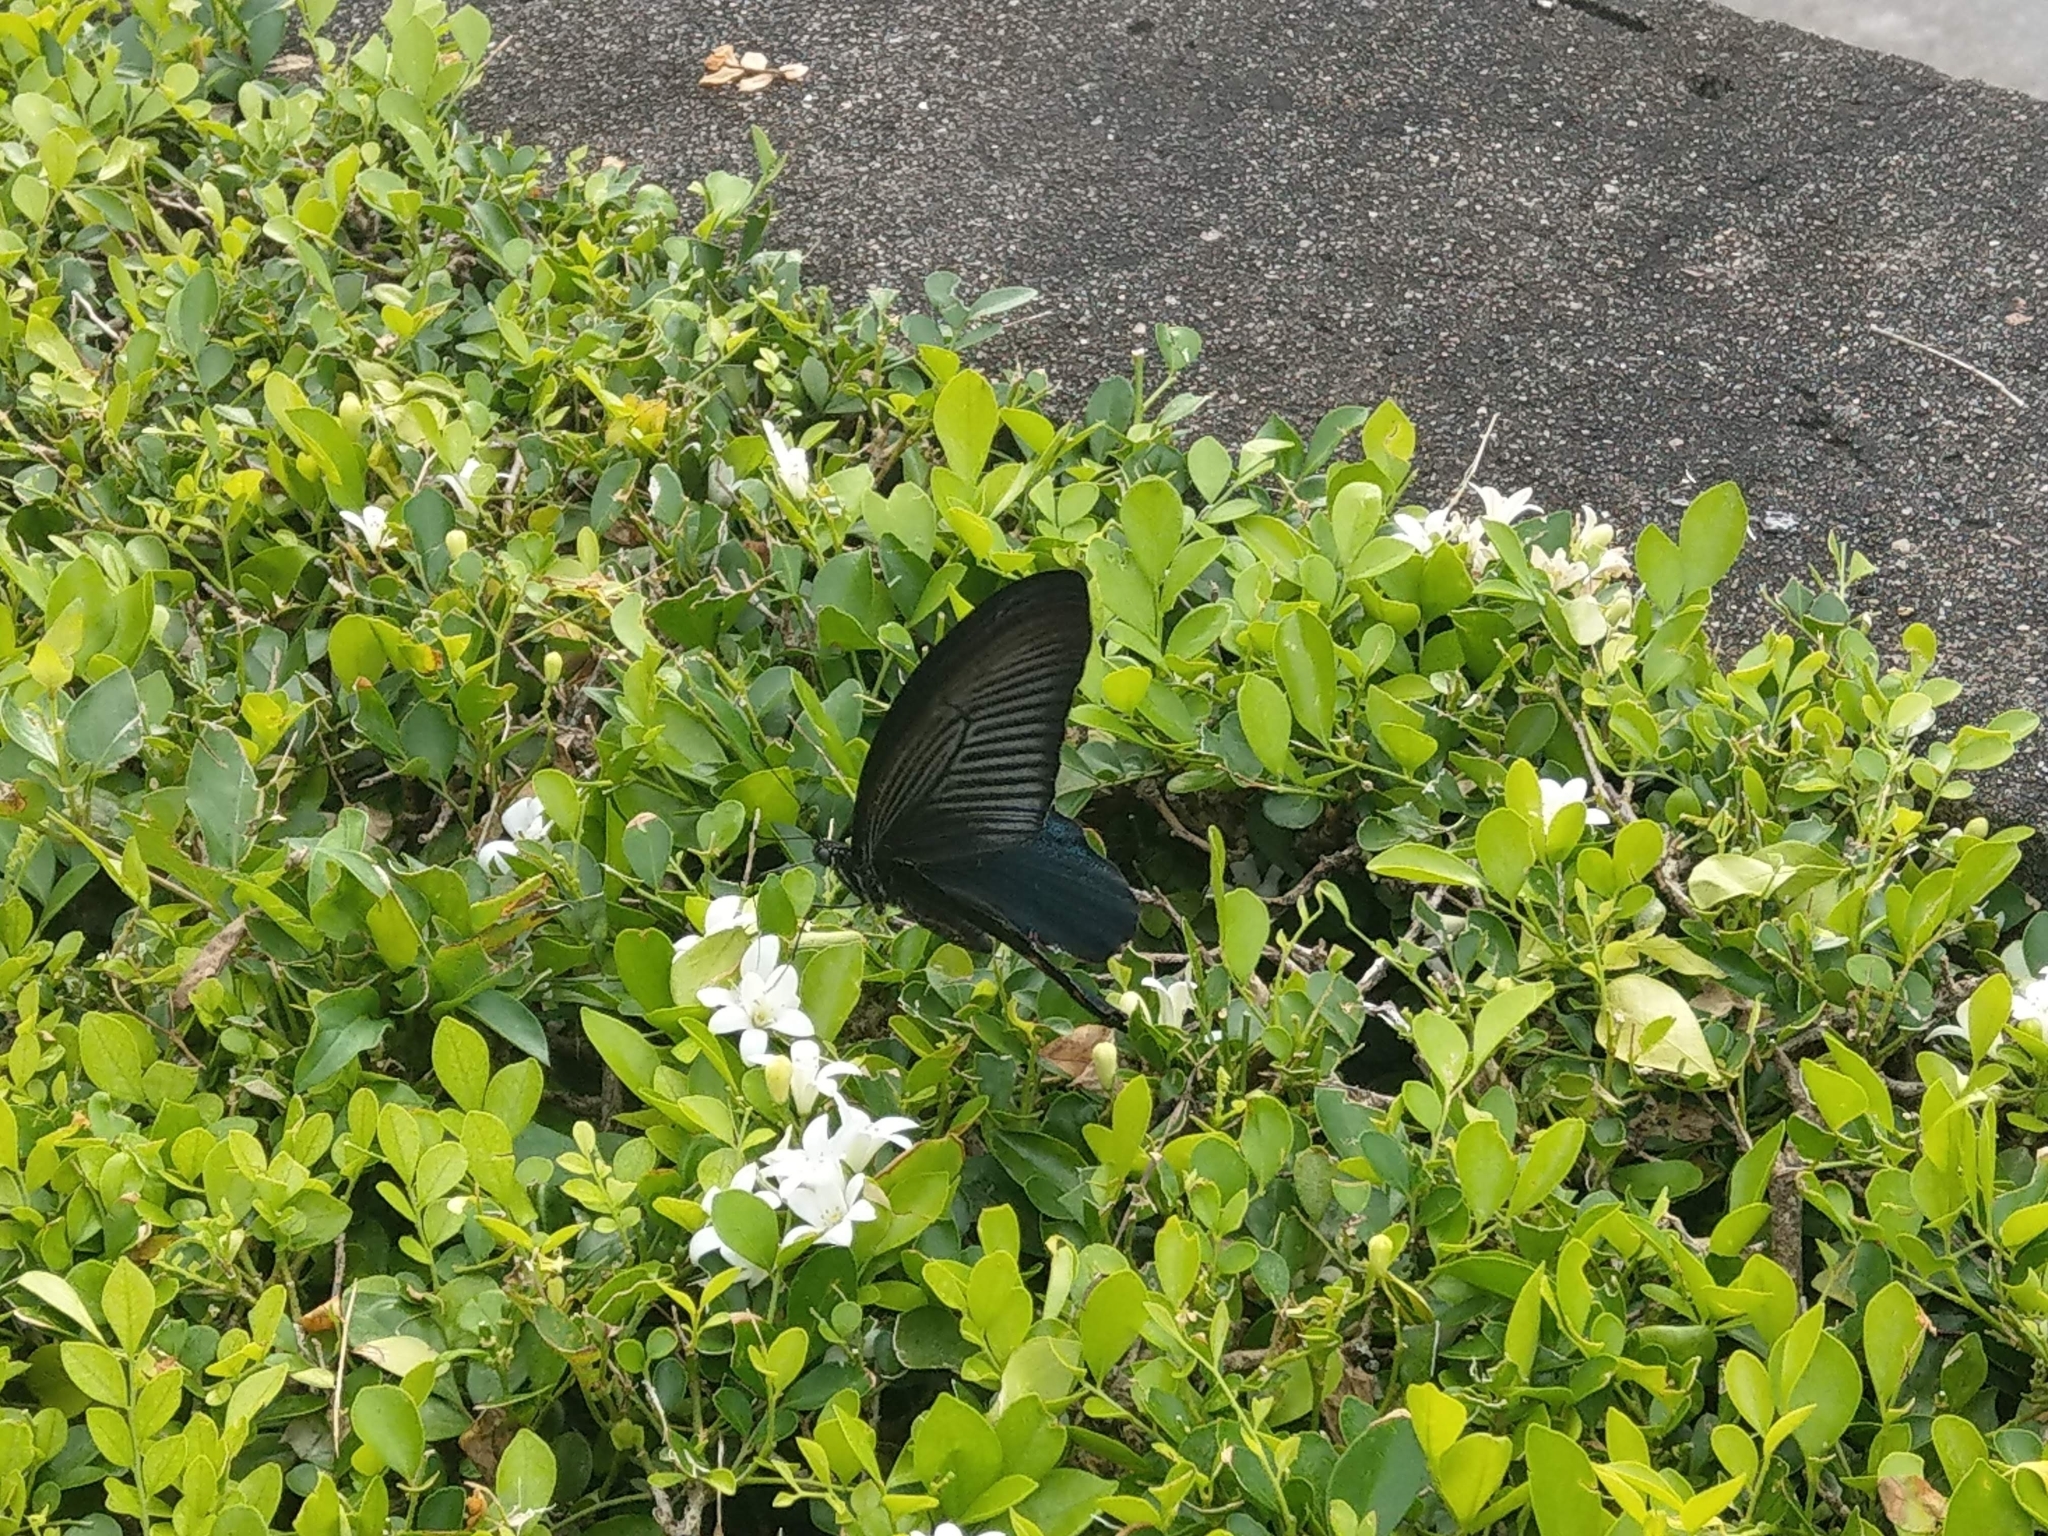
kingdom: Animalia
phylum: Arthropoda
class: Insecta
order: Lepidoptera
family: Papilionidae
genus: Papilio
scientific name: Papilio protenor
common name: Spangle
